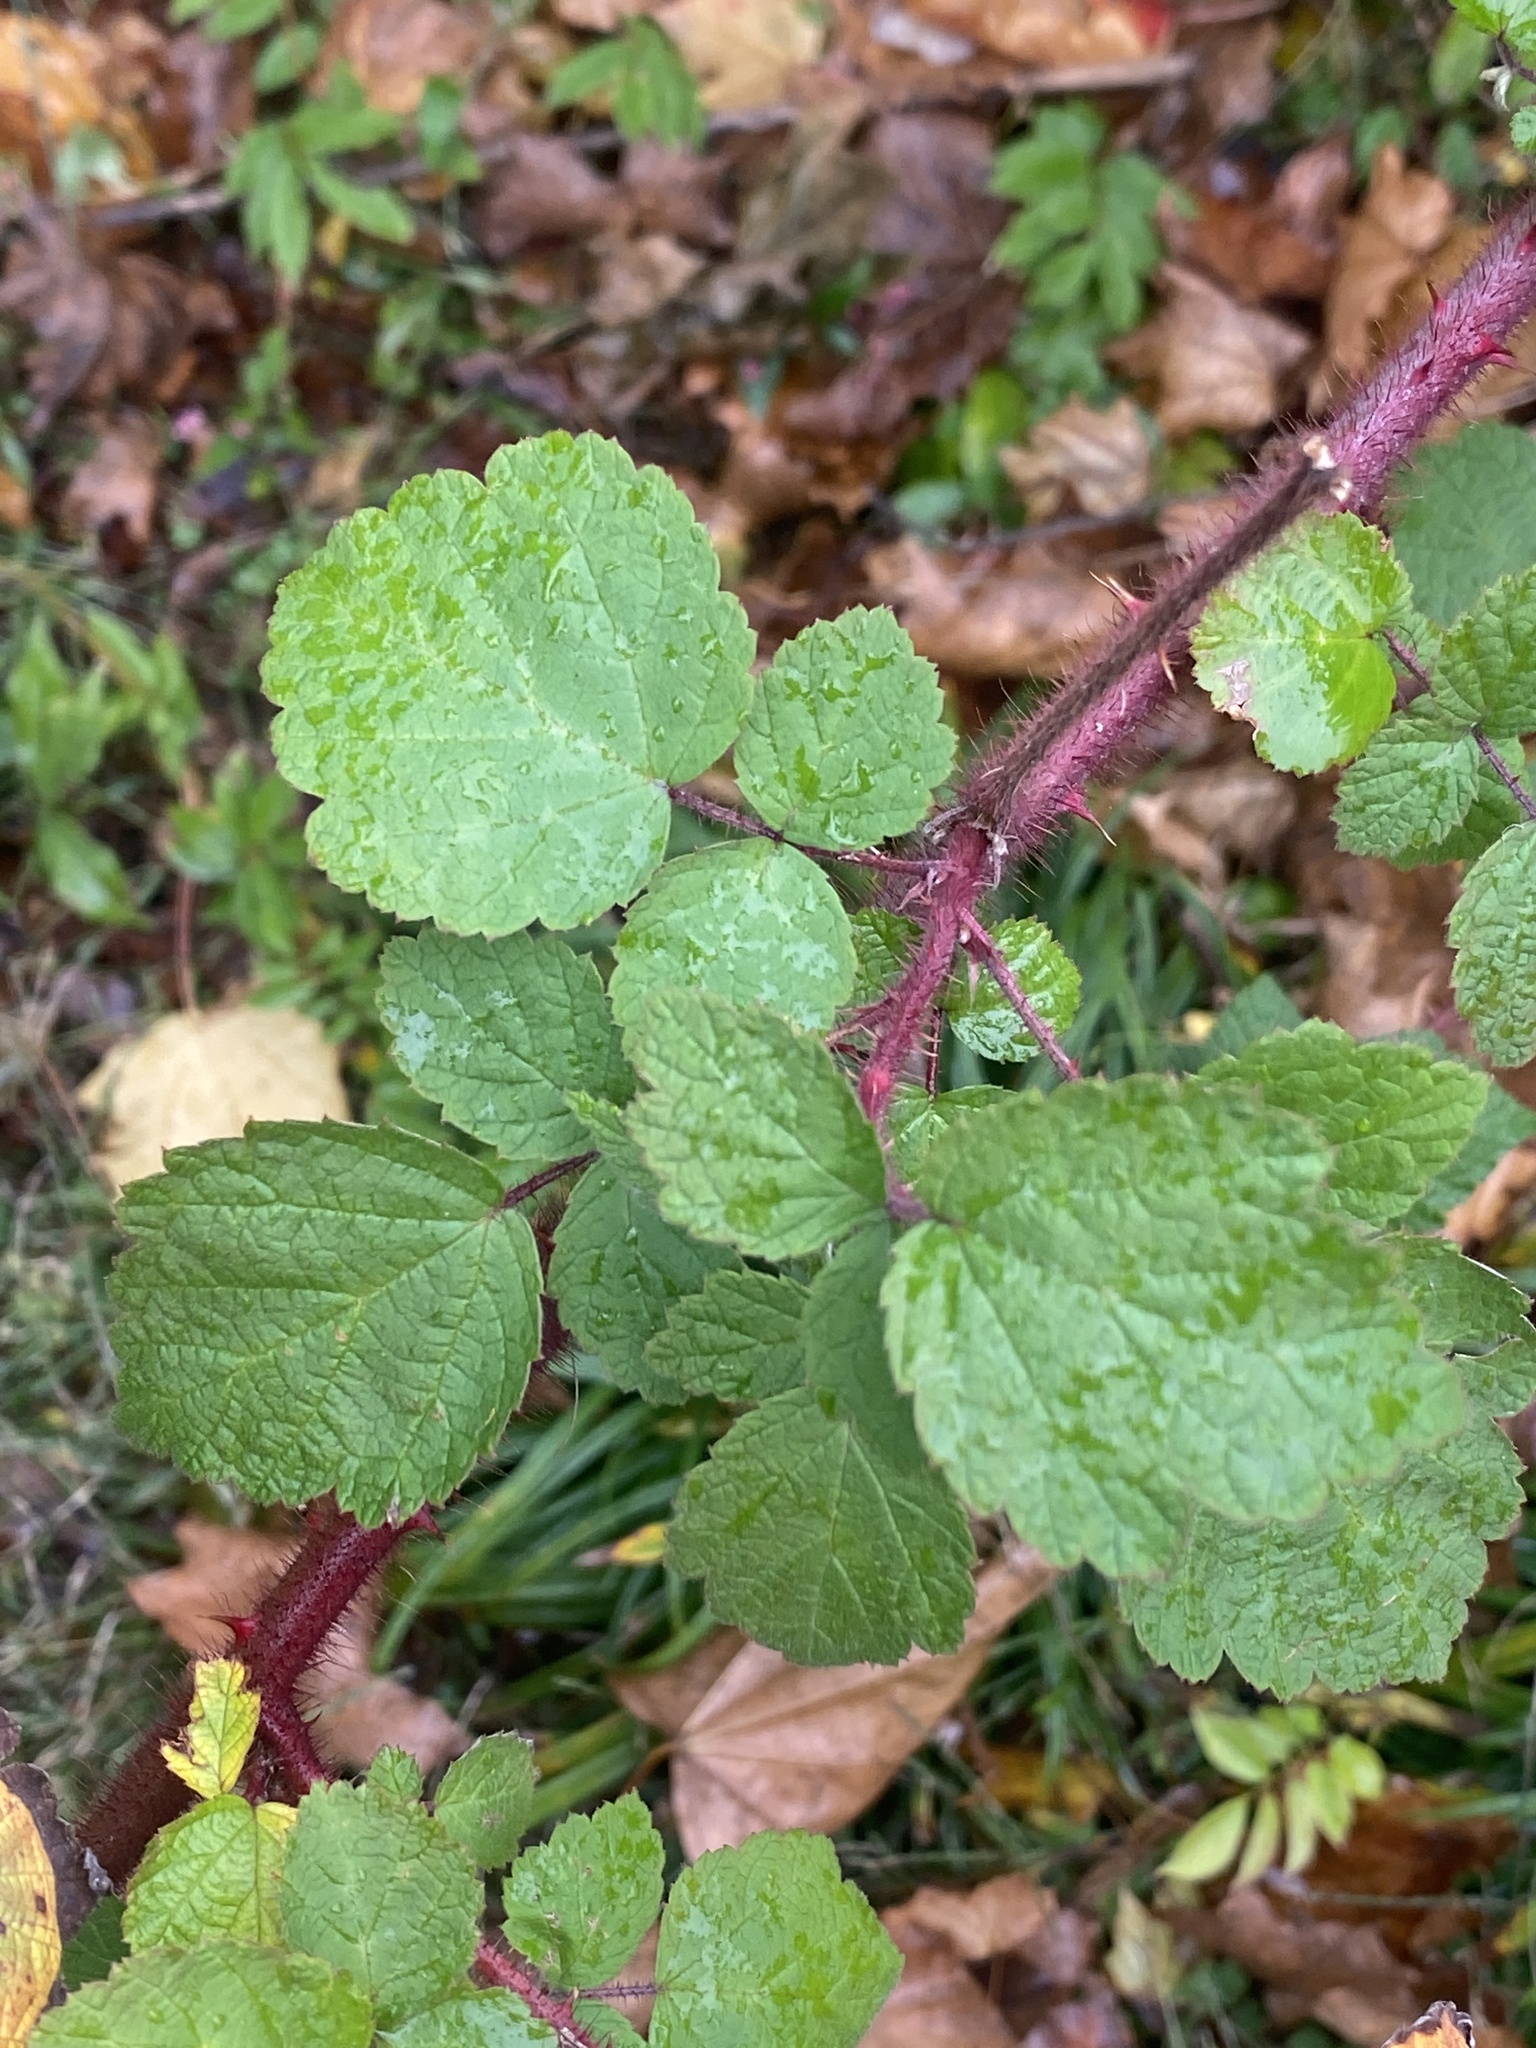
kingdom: Plantae
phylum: Tracheophyta
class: Magnoliopsida
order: Rosales
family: Rosaceae
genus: Rubus
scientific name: Rubus phoenicolasius
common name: Japanese wineberry
